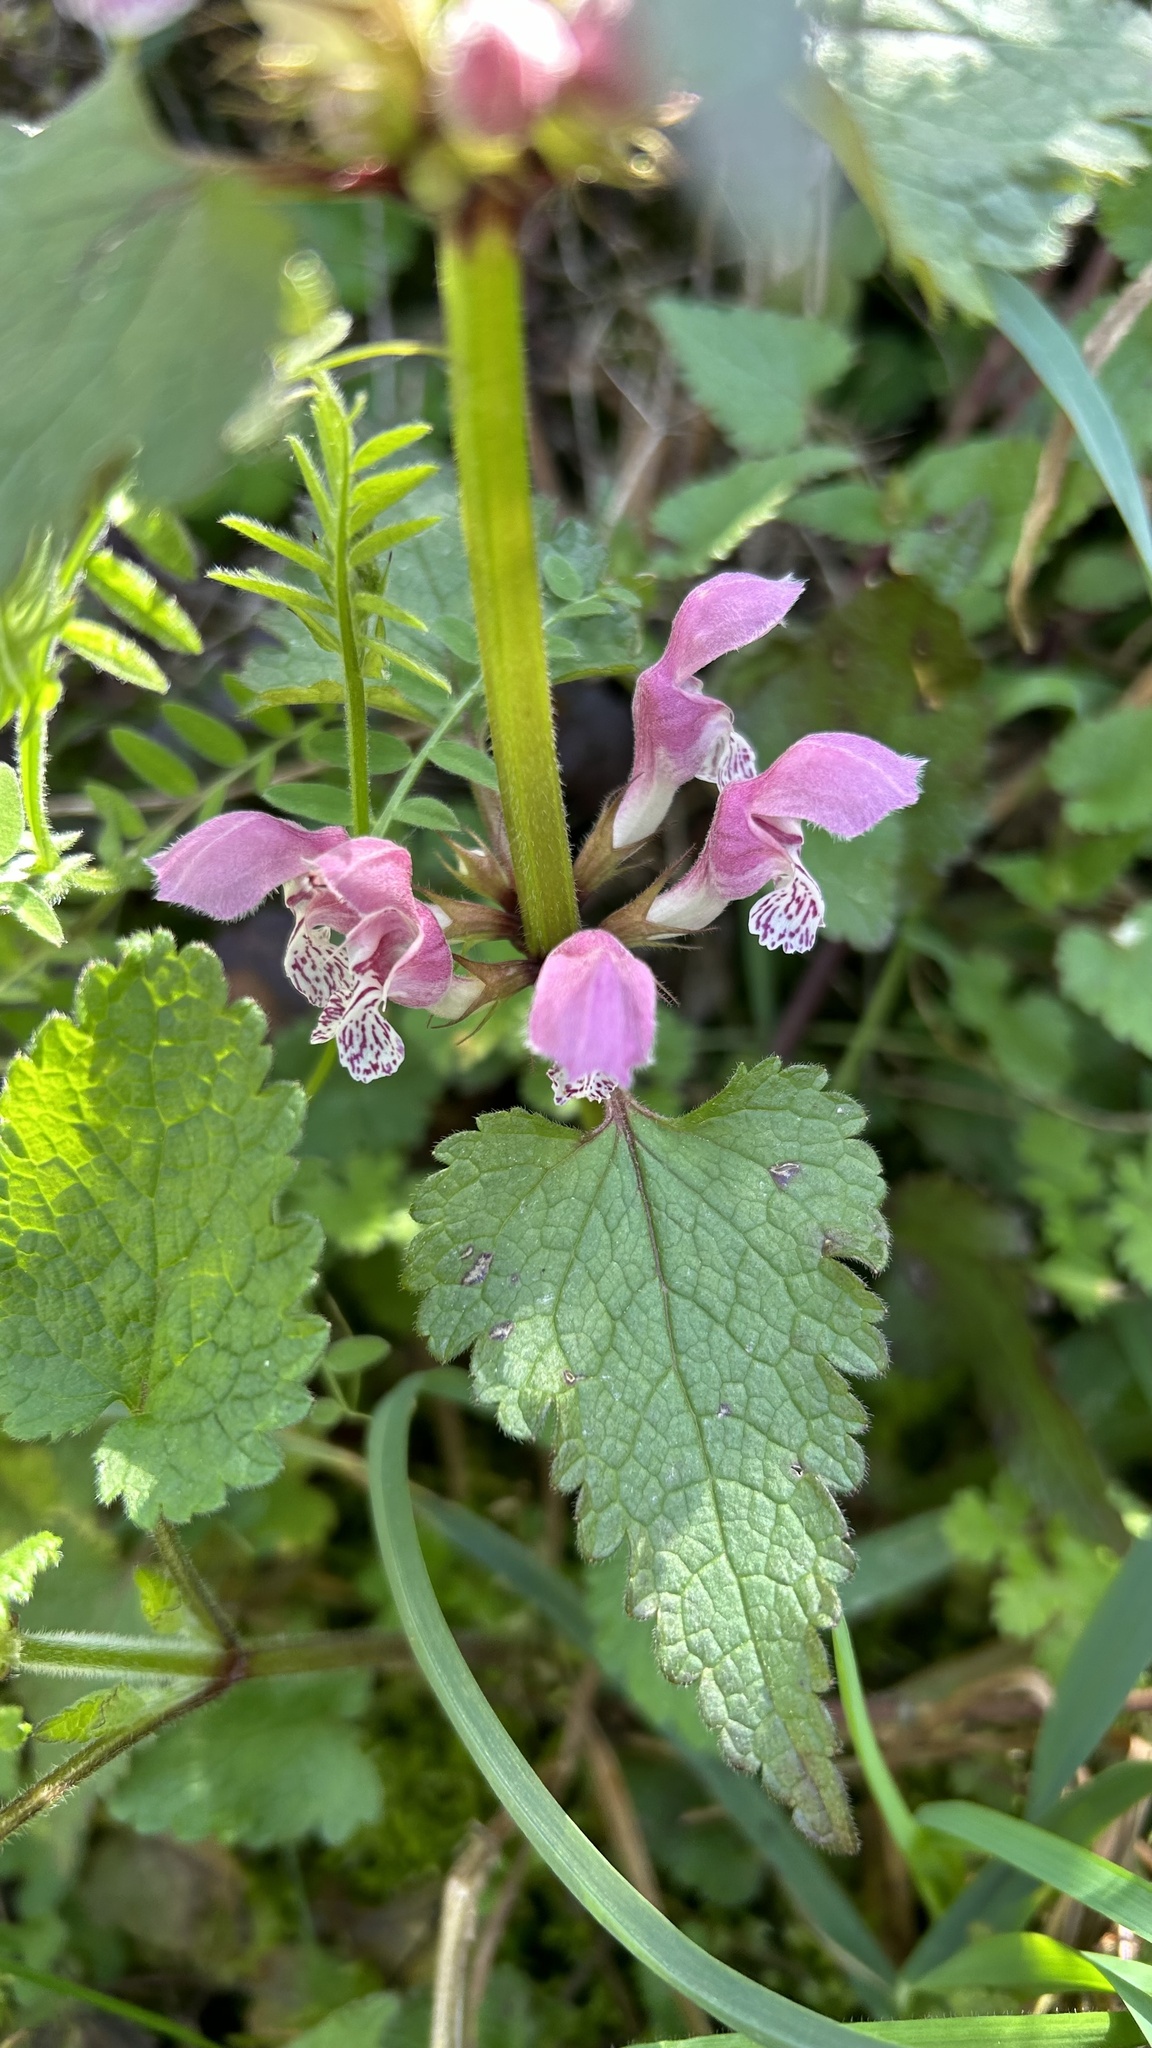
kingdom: Plantae
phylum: Tracheophyta
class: Magnoliopsida
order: Lamiales
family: Lamiaceae
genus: Lamium
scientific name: Lamium maculatum
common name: Spotted dead-nettle
